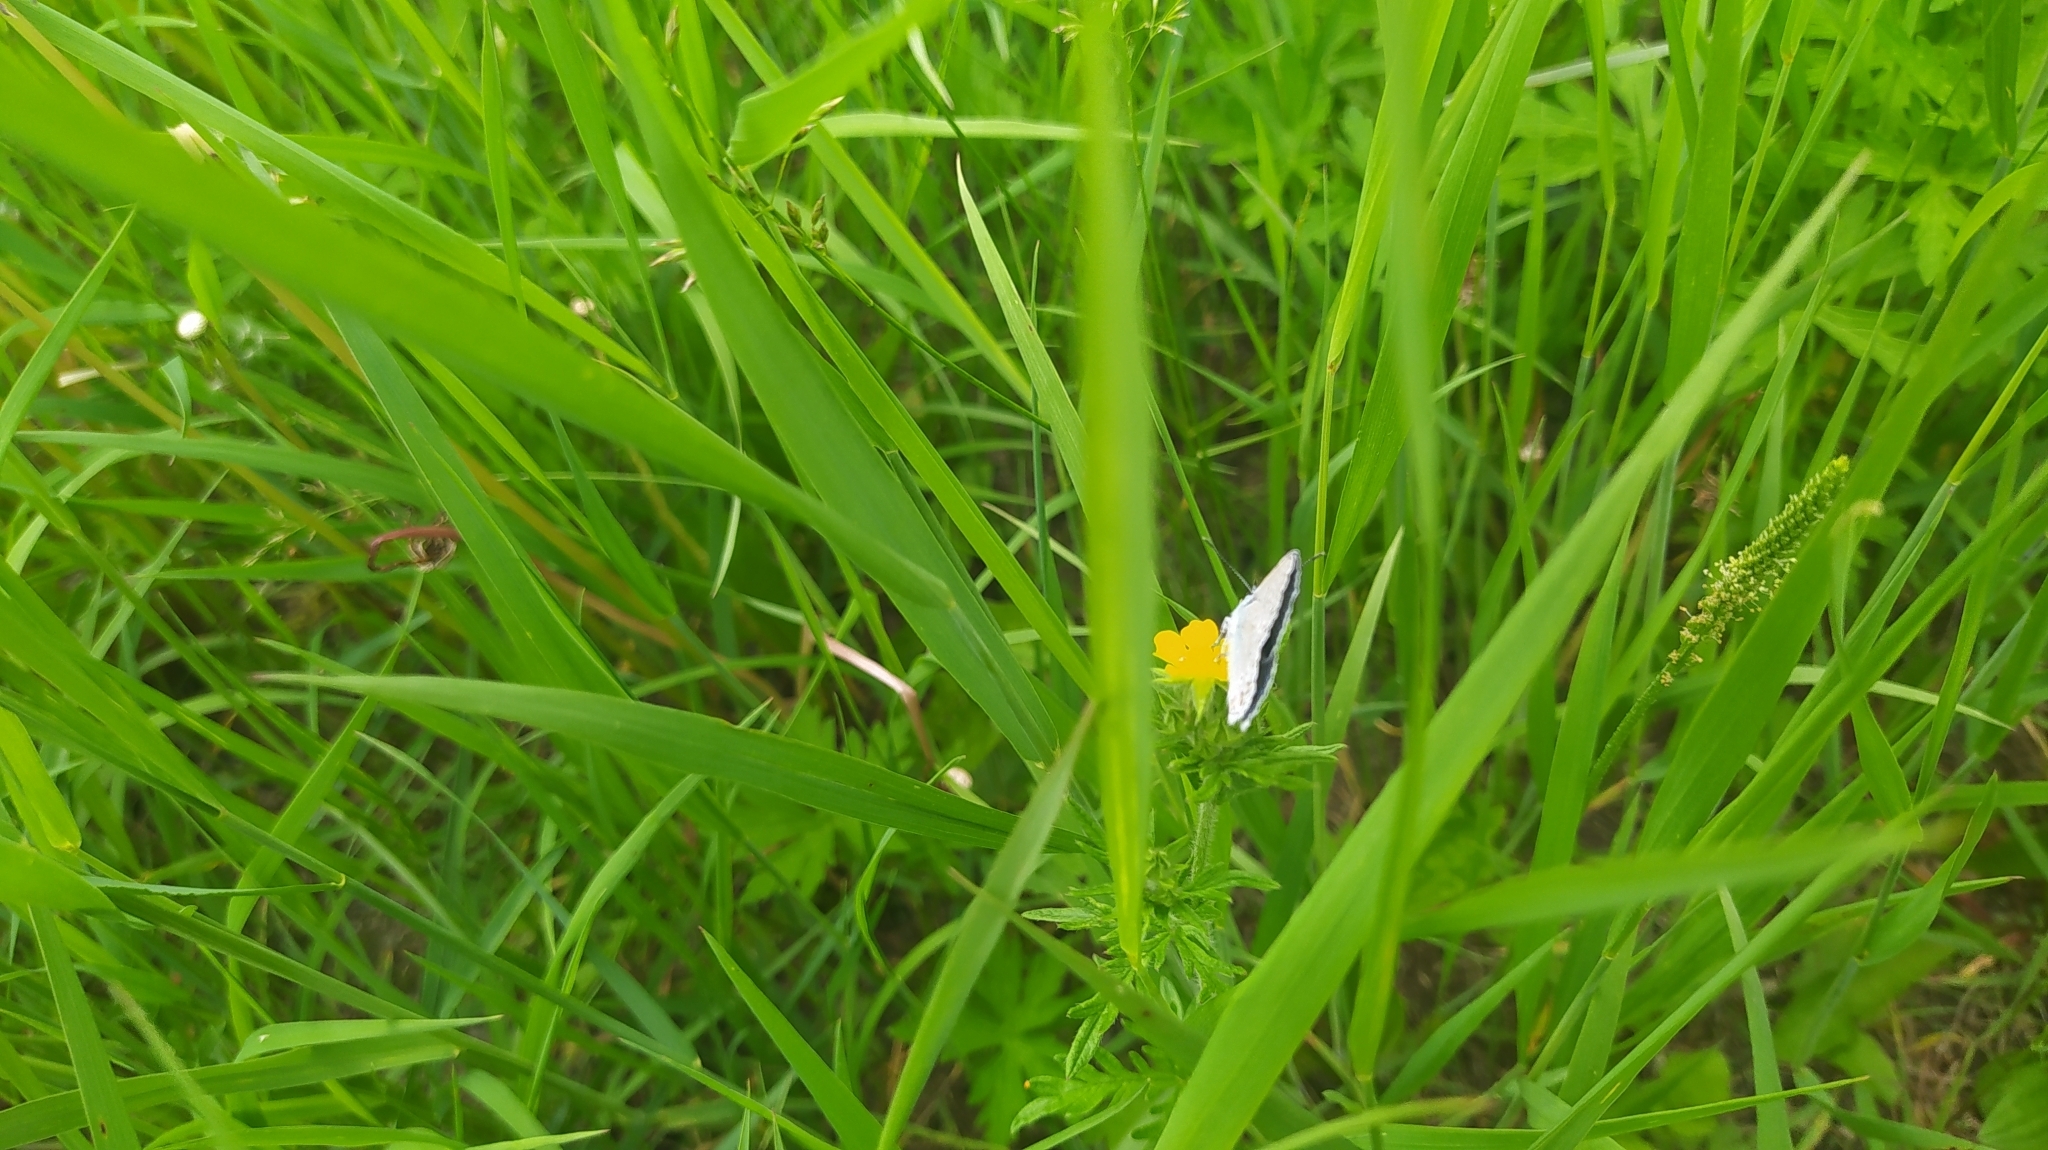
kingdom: Animalia
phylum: Arthropoda
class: Insecta
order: Lepidoptera
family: Lycaenidae
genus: Polyommatus
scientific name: Polyommatus icarus
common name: Common blue
